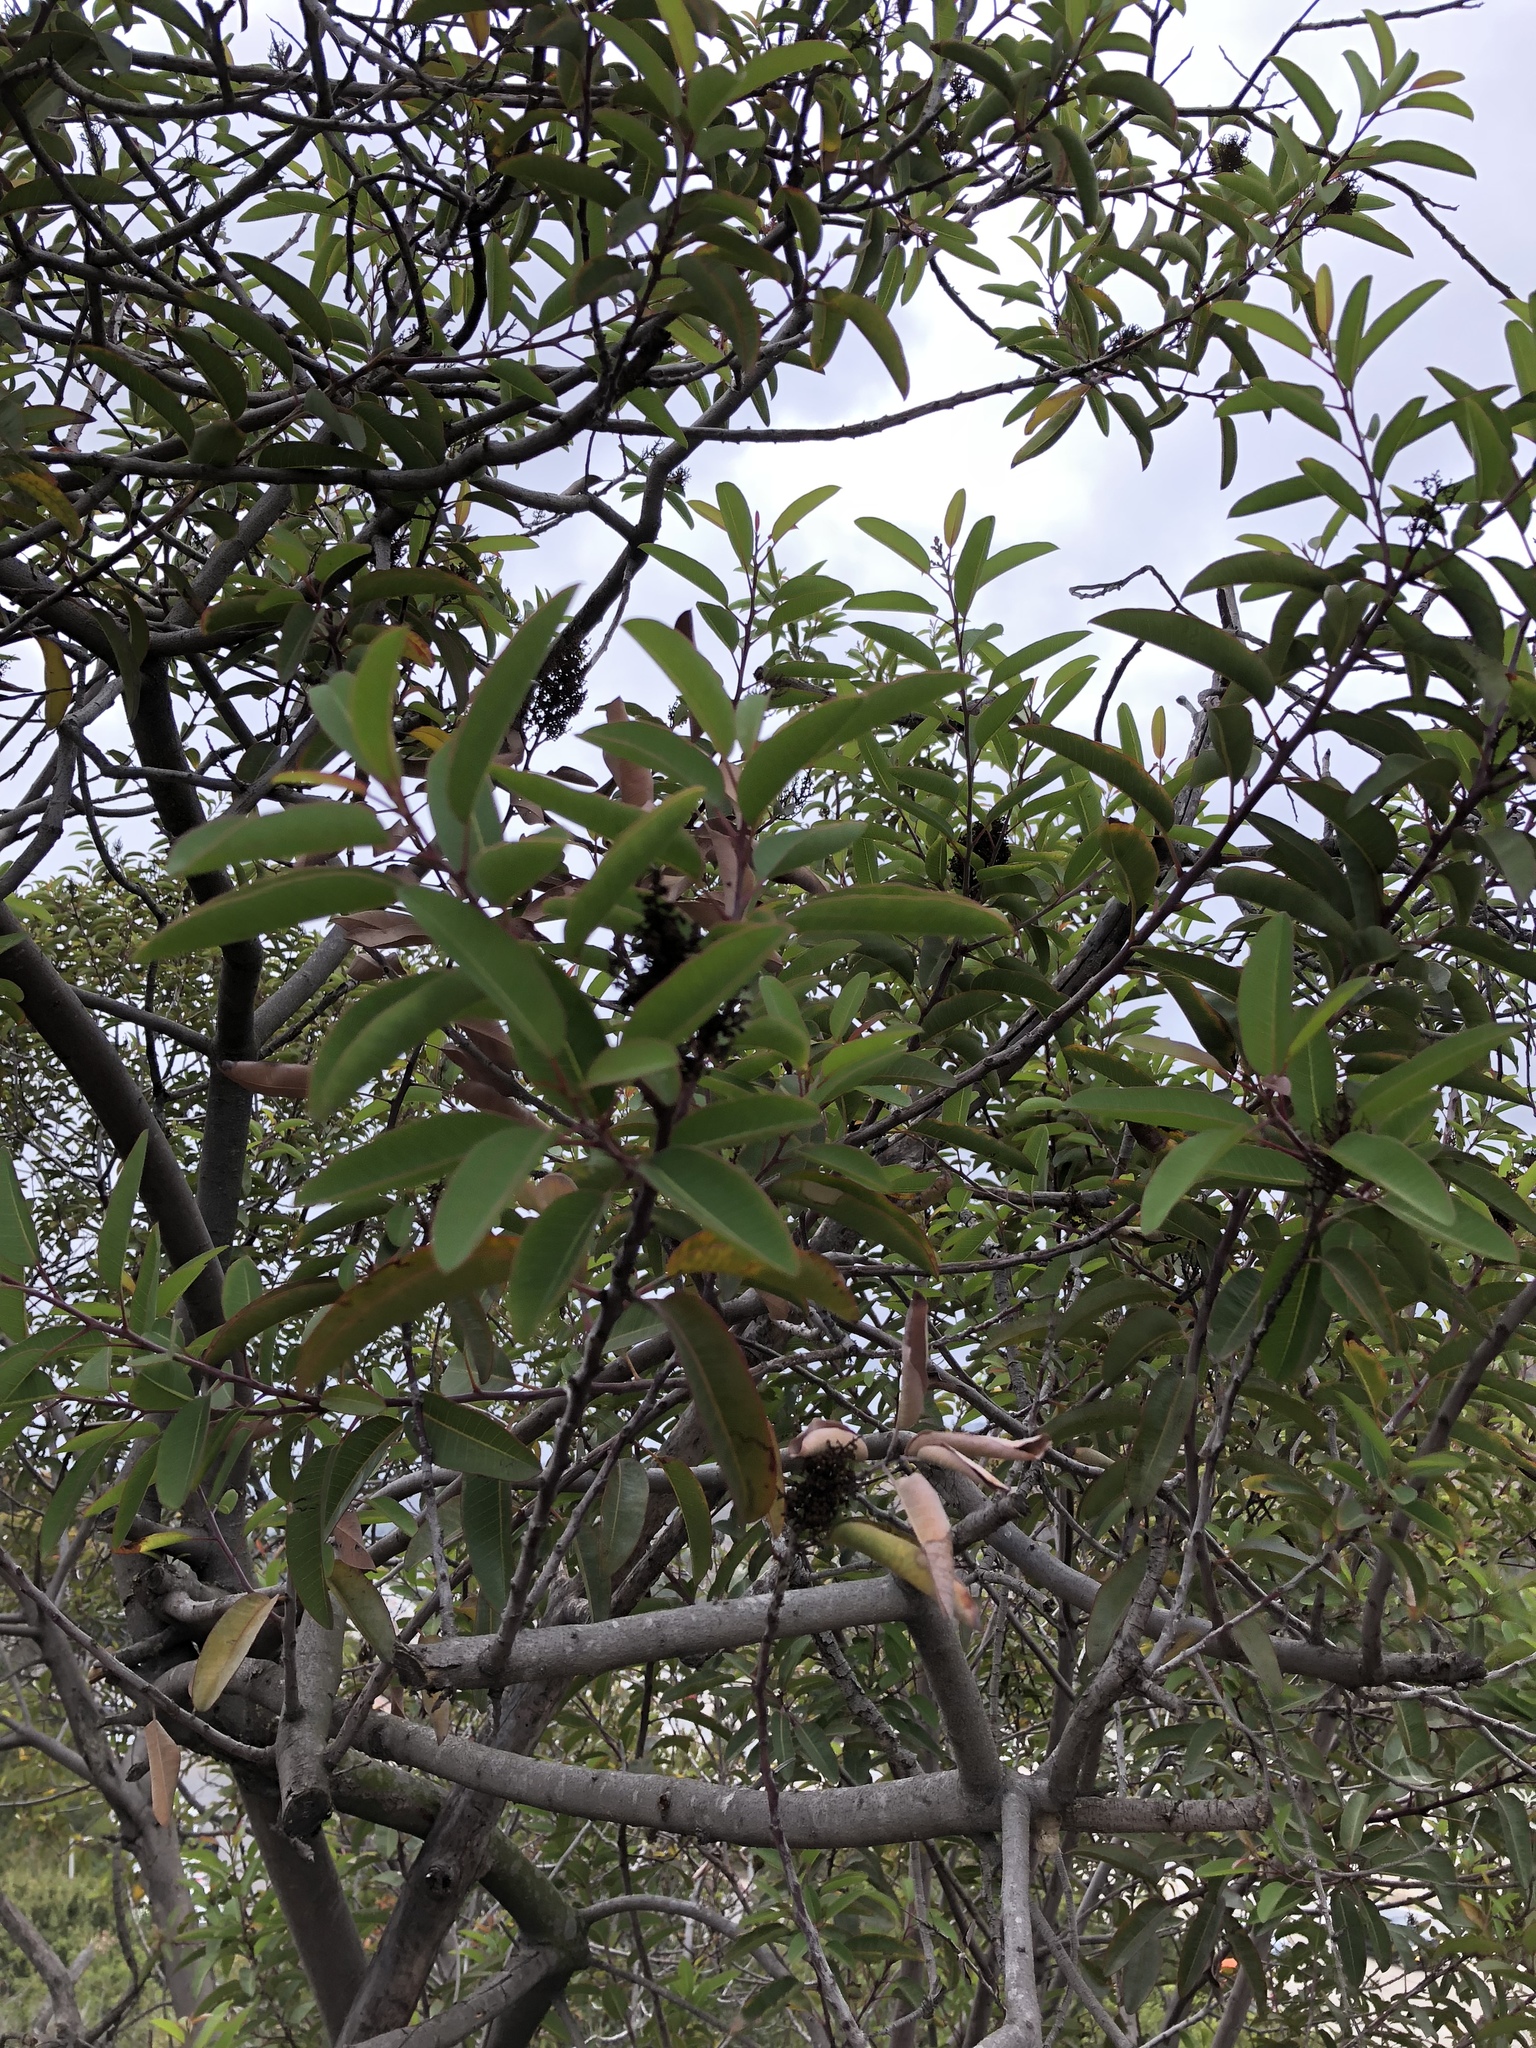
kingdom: Plantae
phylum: Tracheophyta
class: Magnoliopsida
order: Sapindales
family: Anacardiaceae
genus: Malosma
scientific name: Malosma laurina
